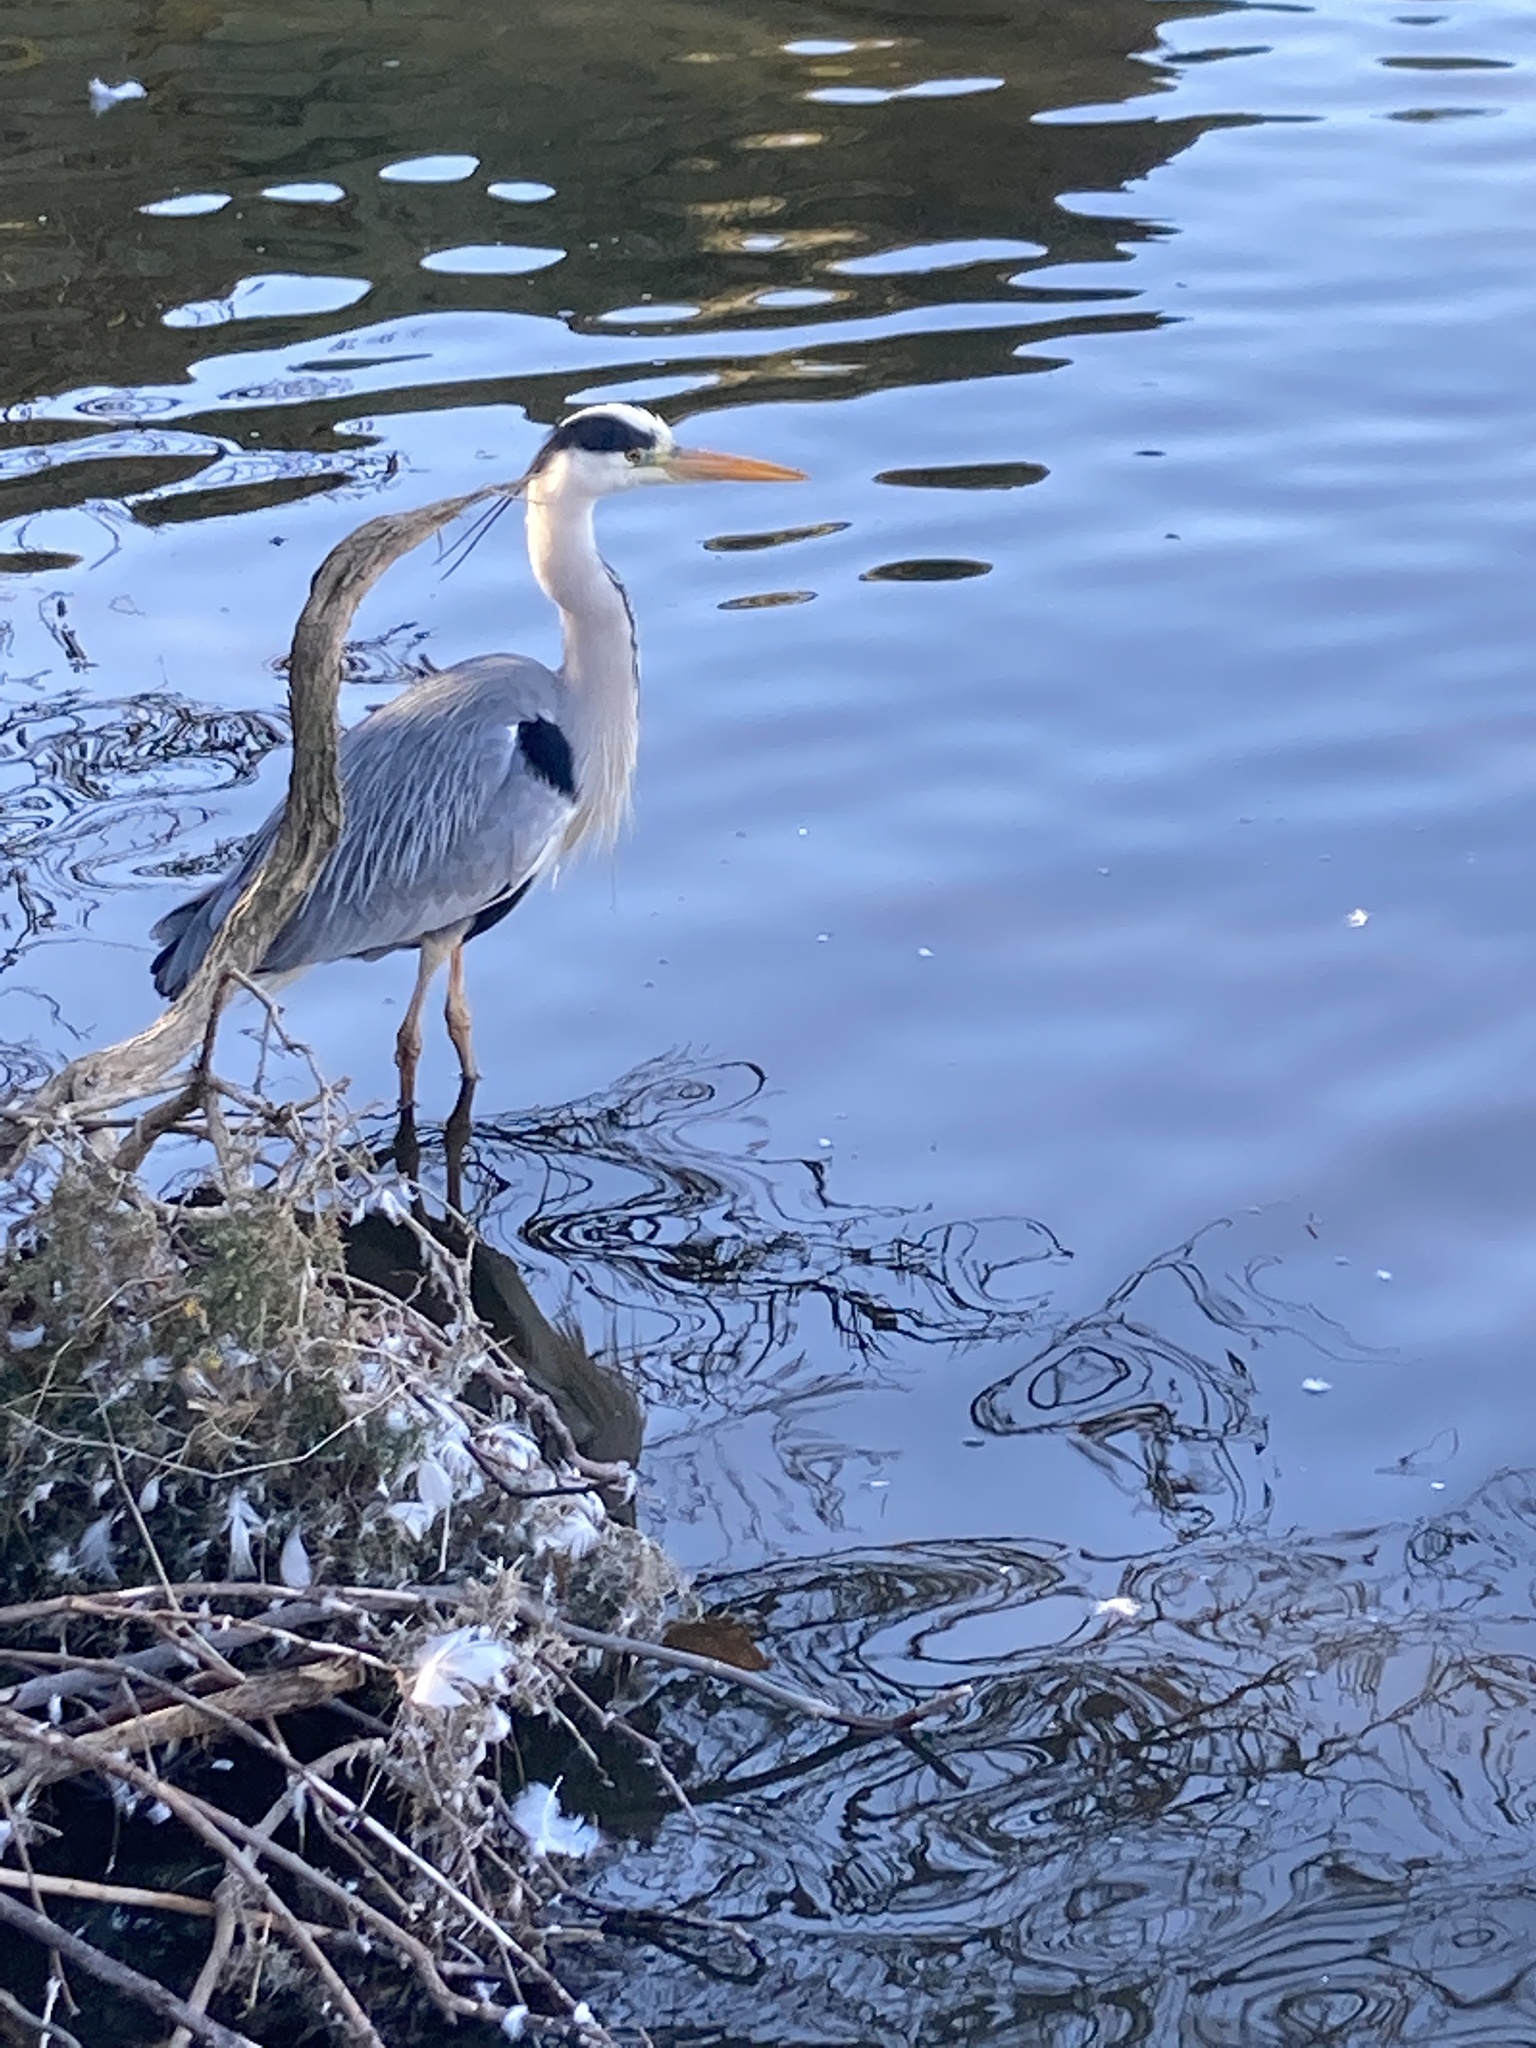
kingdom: Animalia
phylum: Chordata
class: Aves
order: Pelecaniformes
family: Ardeidae
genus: Ardea
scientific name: Ardea cinerea
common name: Grey heron
